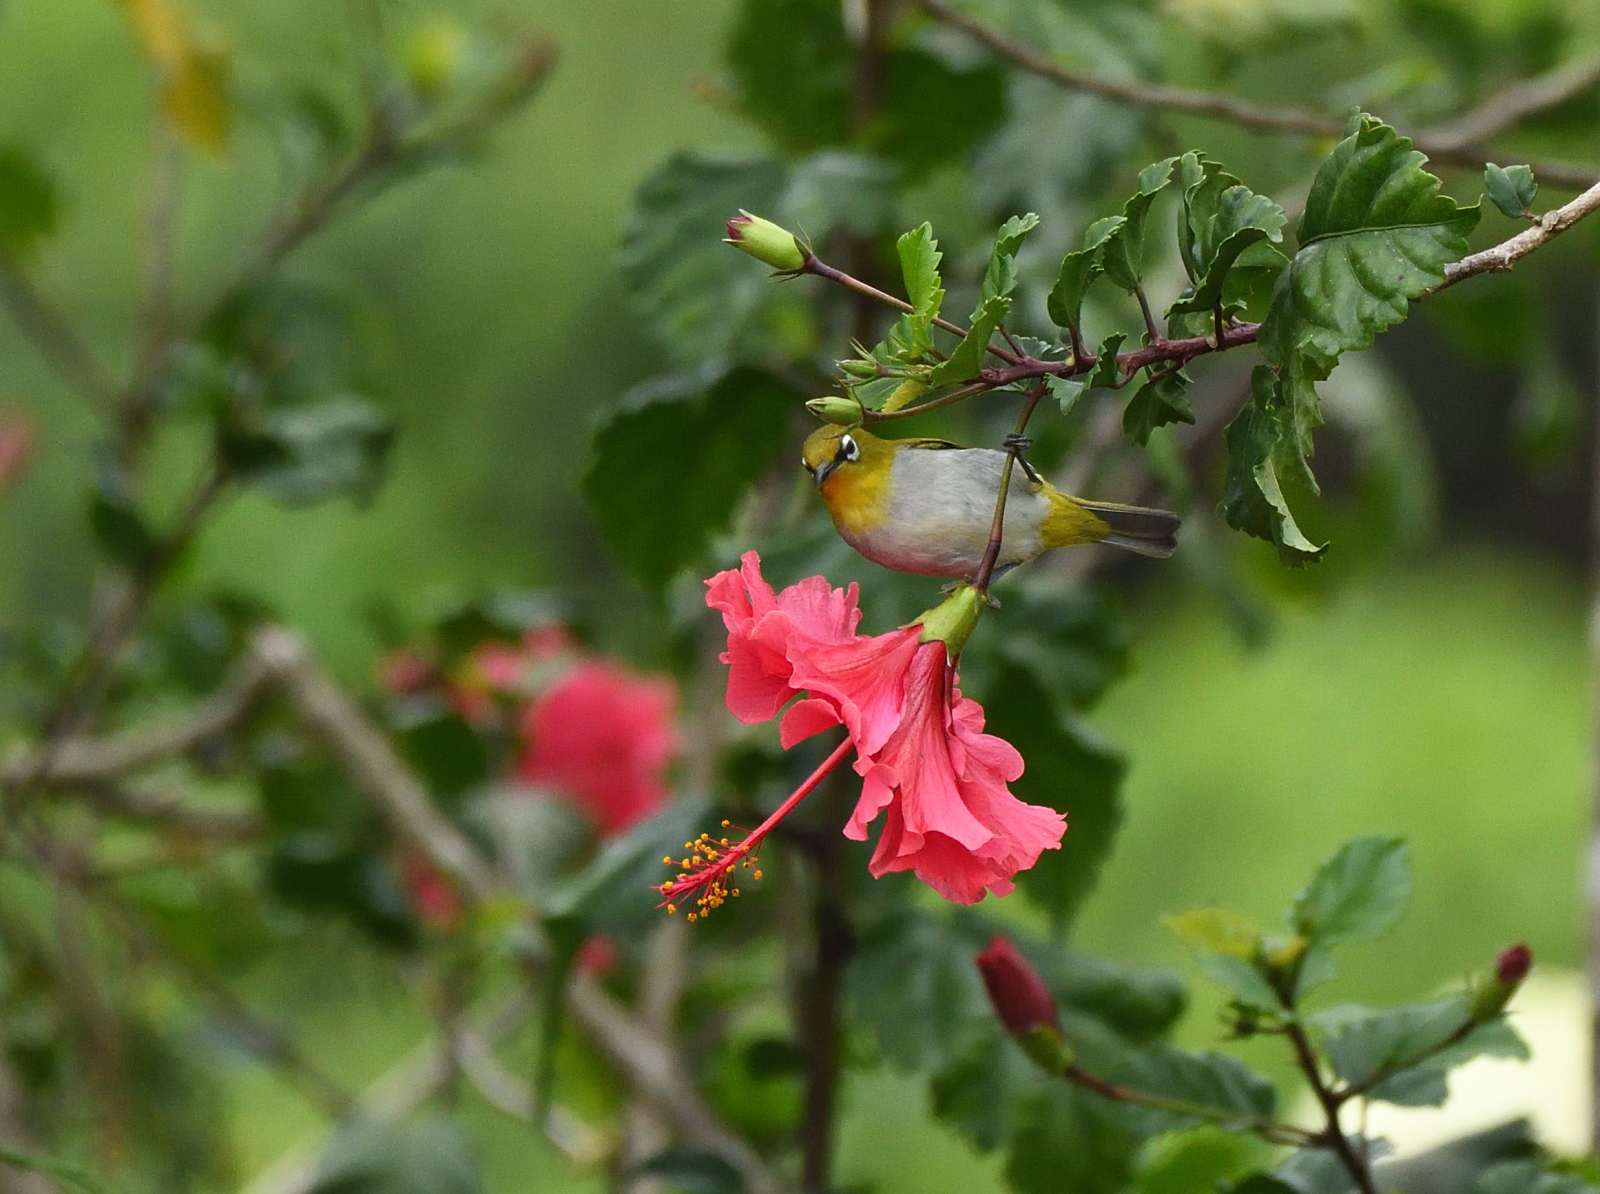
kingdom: Animalia
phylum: Chordata
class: Aves
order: Passeriformes
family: Zosteropidae
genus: Zosterops
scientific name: Zosterops palpebrosus
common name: Oriental white-eye
